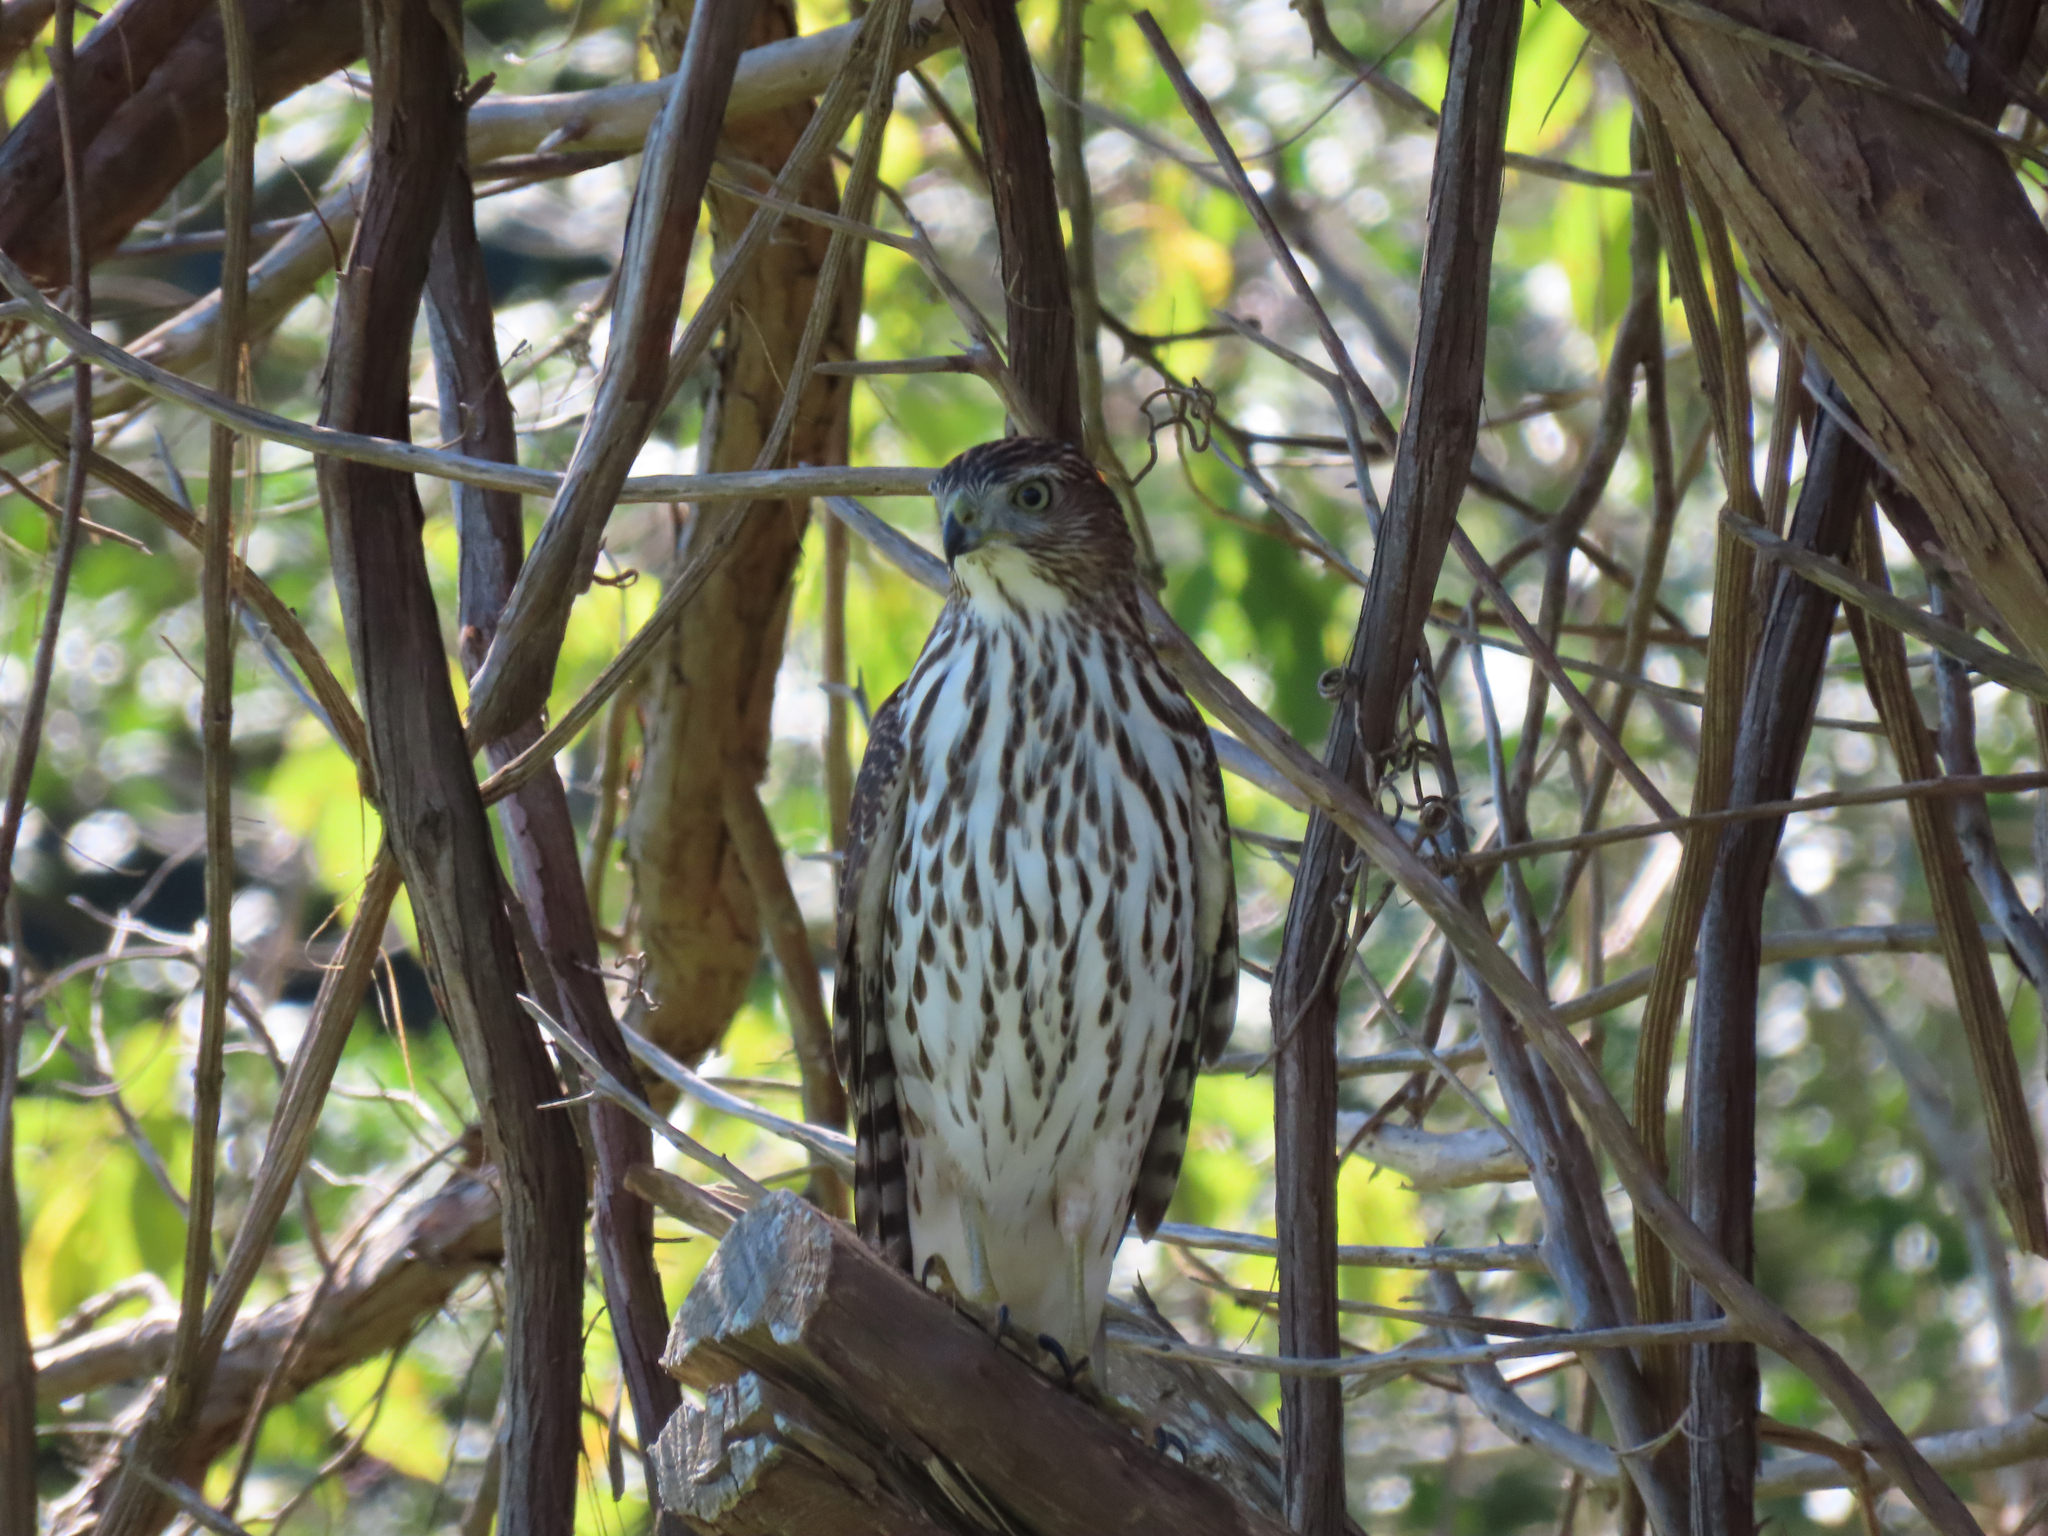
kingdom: Animalia
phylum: Chordata
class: Aves
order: Accipitriformes
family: Accipitridae
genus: Accipiter
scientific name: Accipiter cooperii
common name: Cooper's hawk
